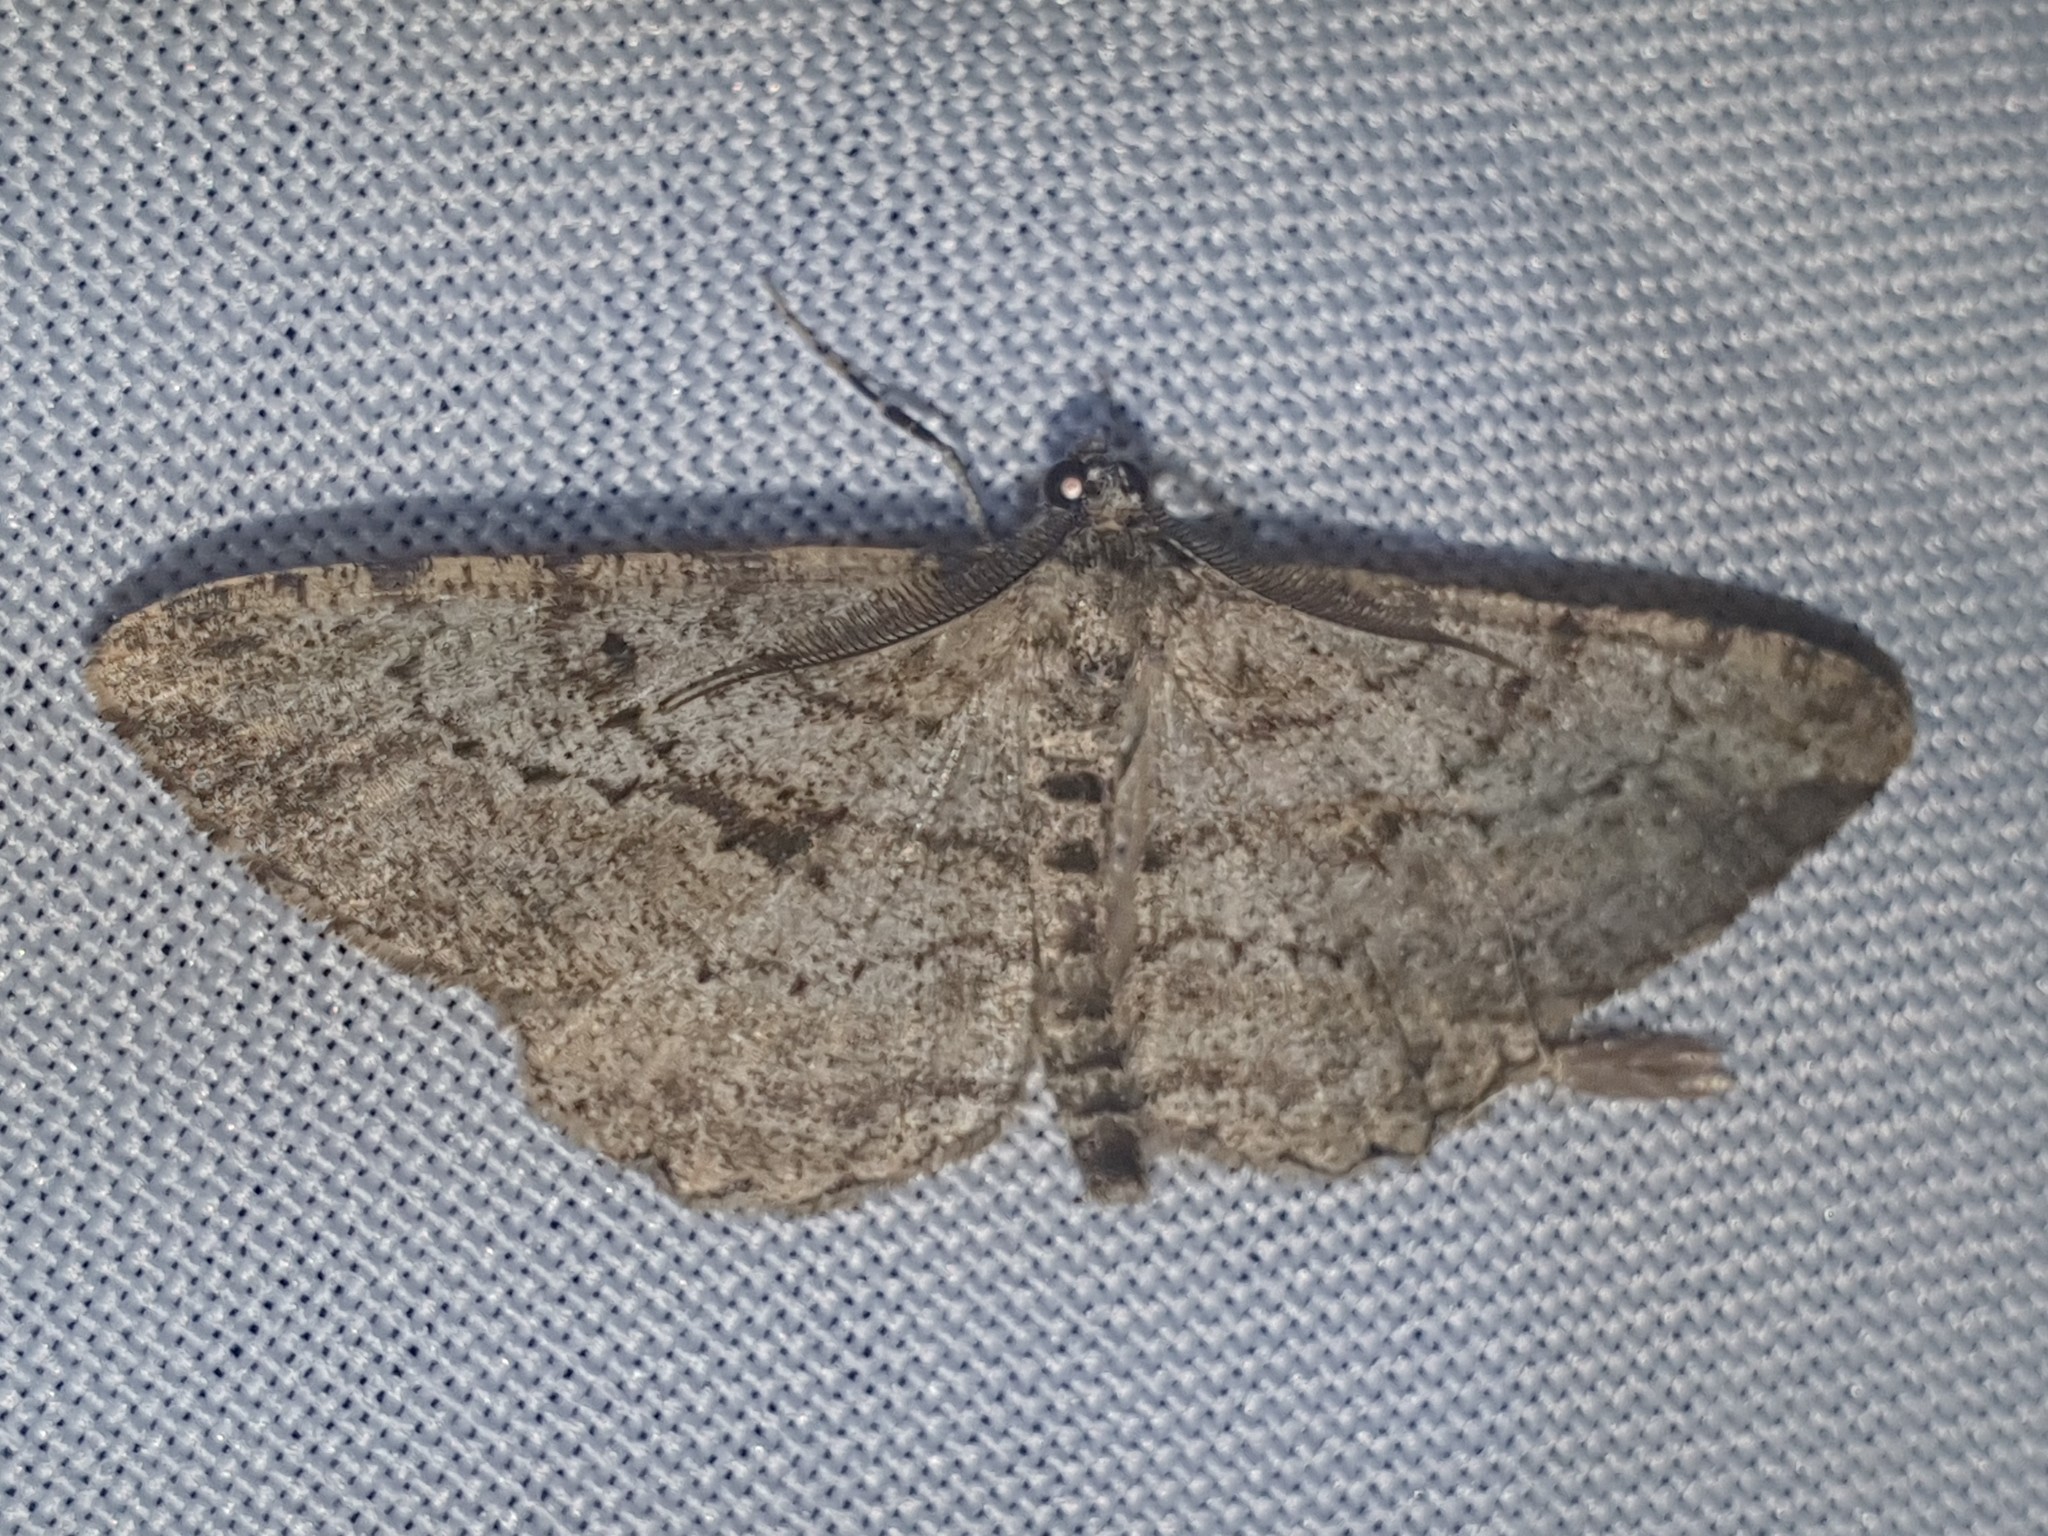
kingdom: Animalia
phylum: Arthropoda
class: Insecta
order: Lepidoptera
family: Geometridae
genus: Peribatodes
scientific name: Peribatodes rhomboidaria
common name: Willow beauty
